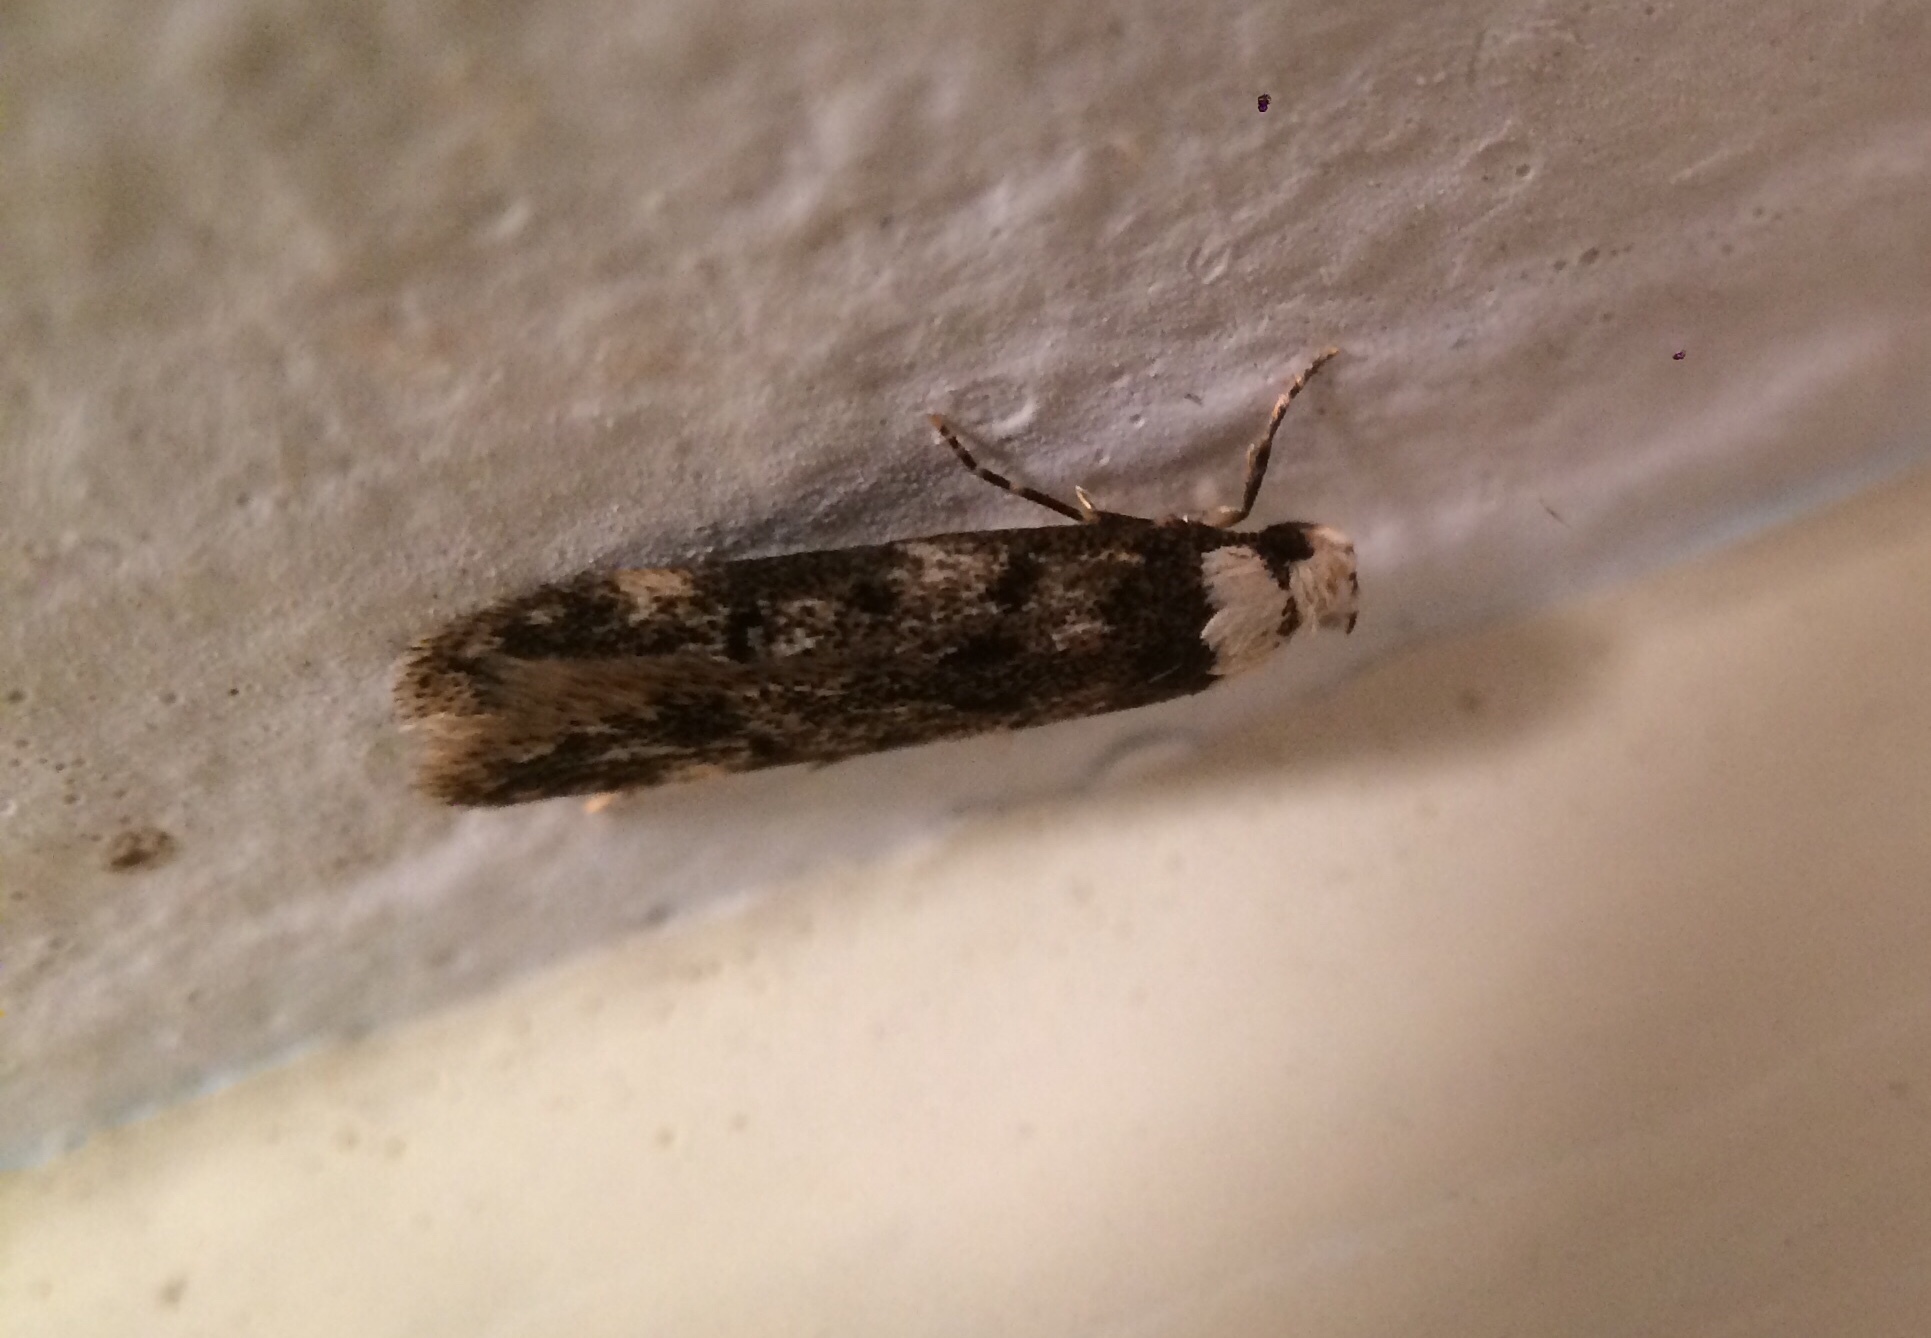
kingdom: Animalia
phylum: Arthropoda
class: Insecta
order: Lepidoptera
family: Oecophoridae
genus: Endrosis
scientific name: Endrosis sarcitrella
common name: White-shouldered house moth
